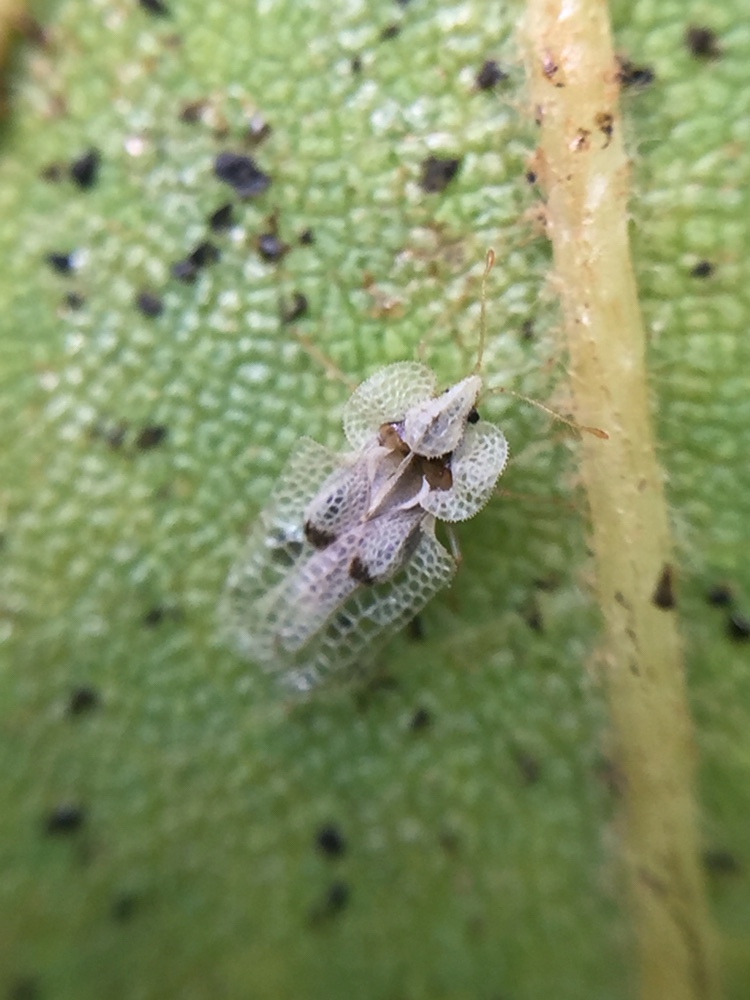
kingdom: Animalia
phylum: Arthropoda
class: Insecta
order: Hemiptera
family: Tingidae
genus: Corythucha
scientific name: Corythucha ciliata
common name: Sycamore lace bug
